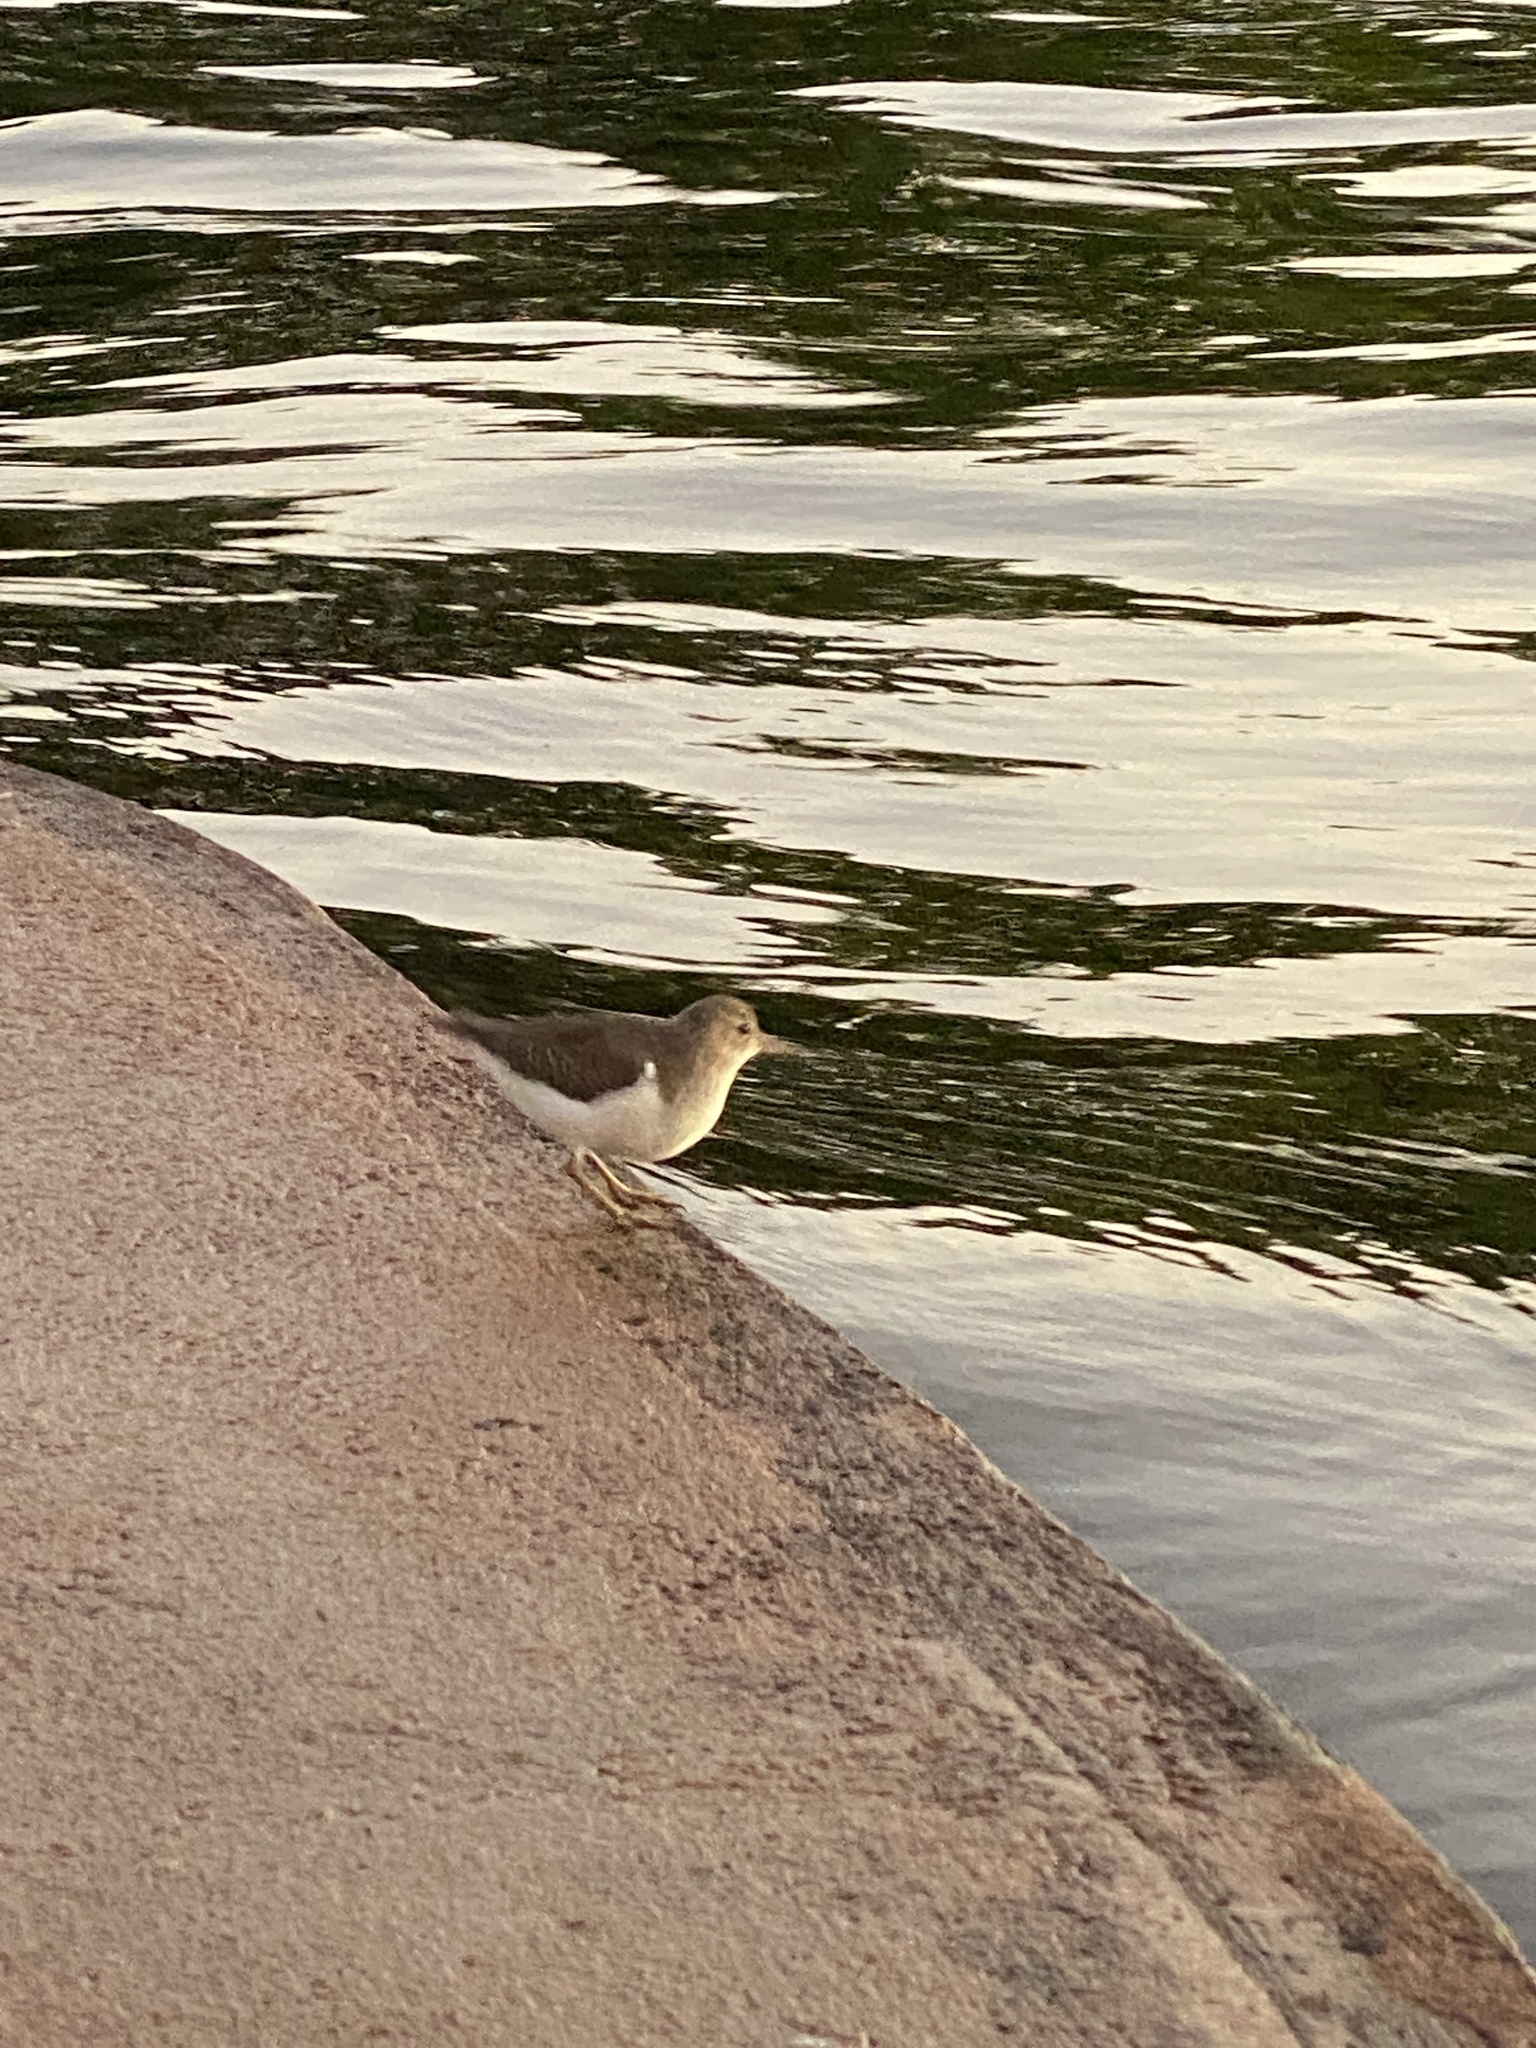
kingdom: Animalia
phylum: Chordata
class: Aves
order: Charadriiformes
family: Scolopacidae
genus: Actitis
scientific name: Actitis macularius
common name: Spotted sandpiper
